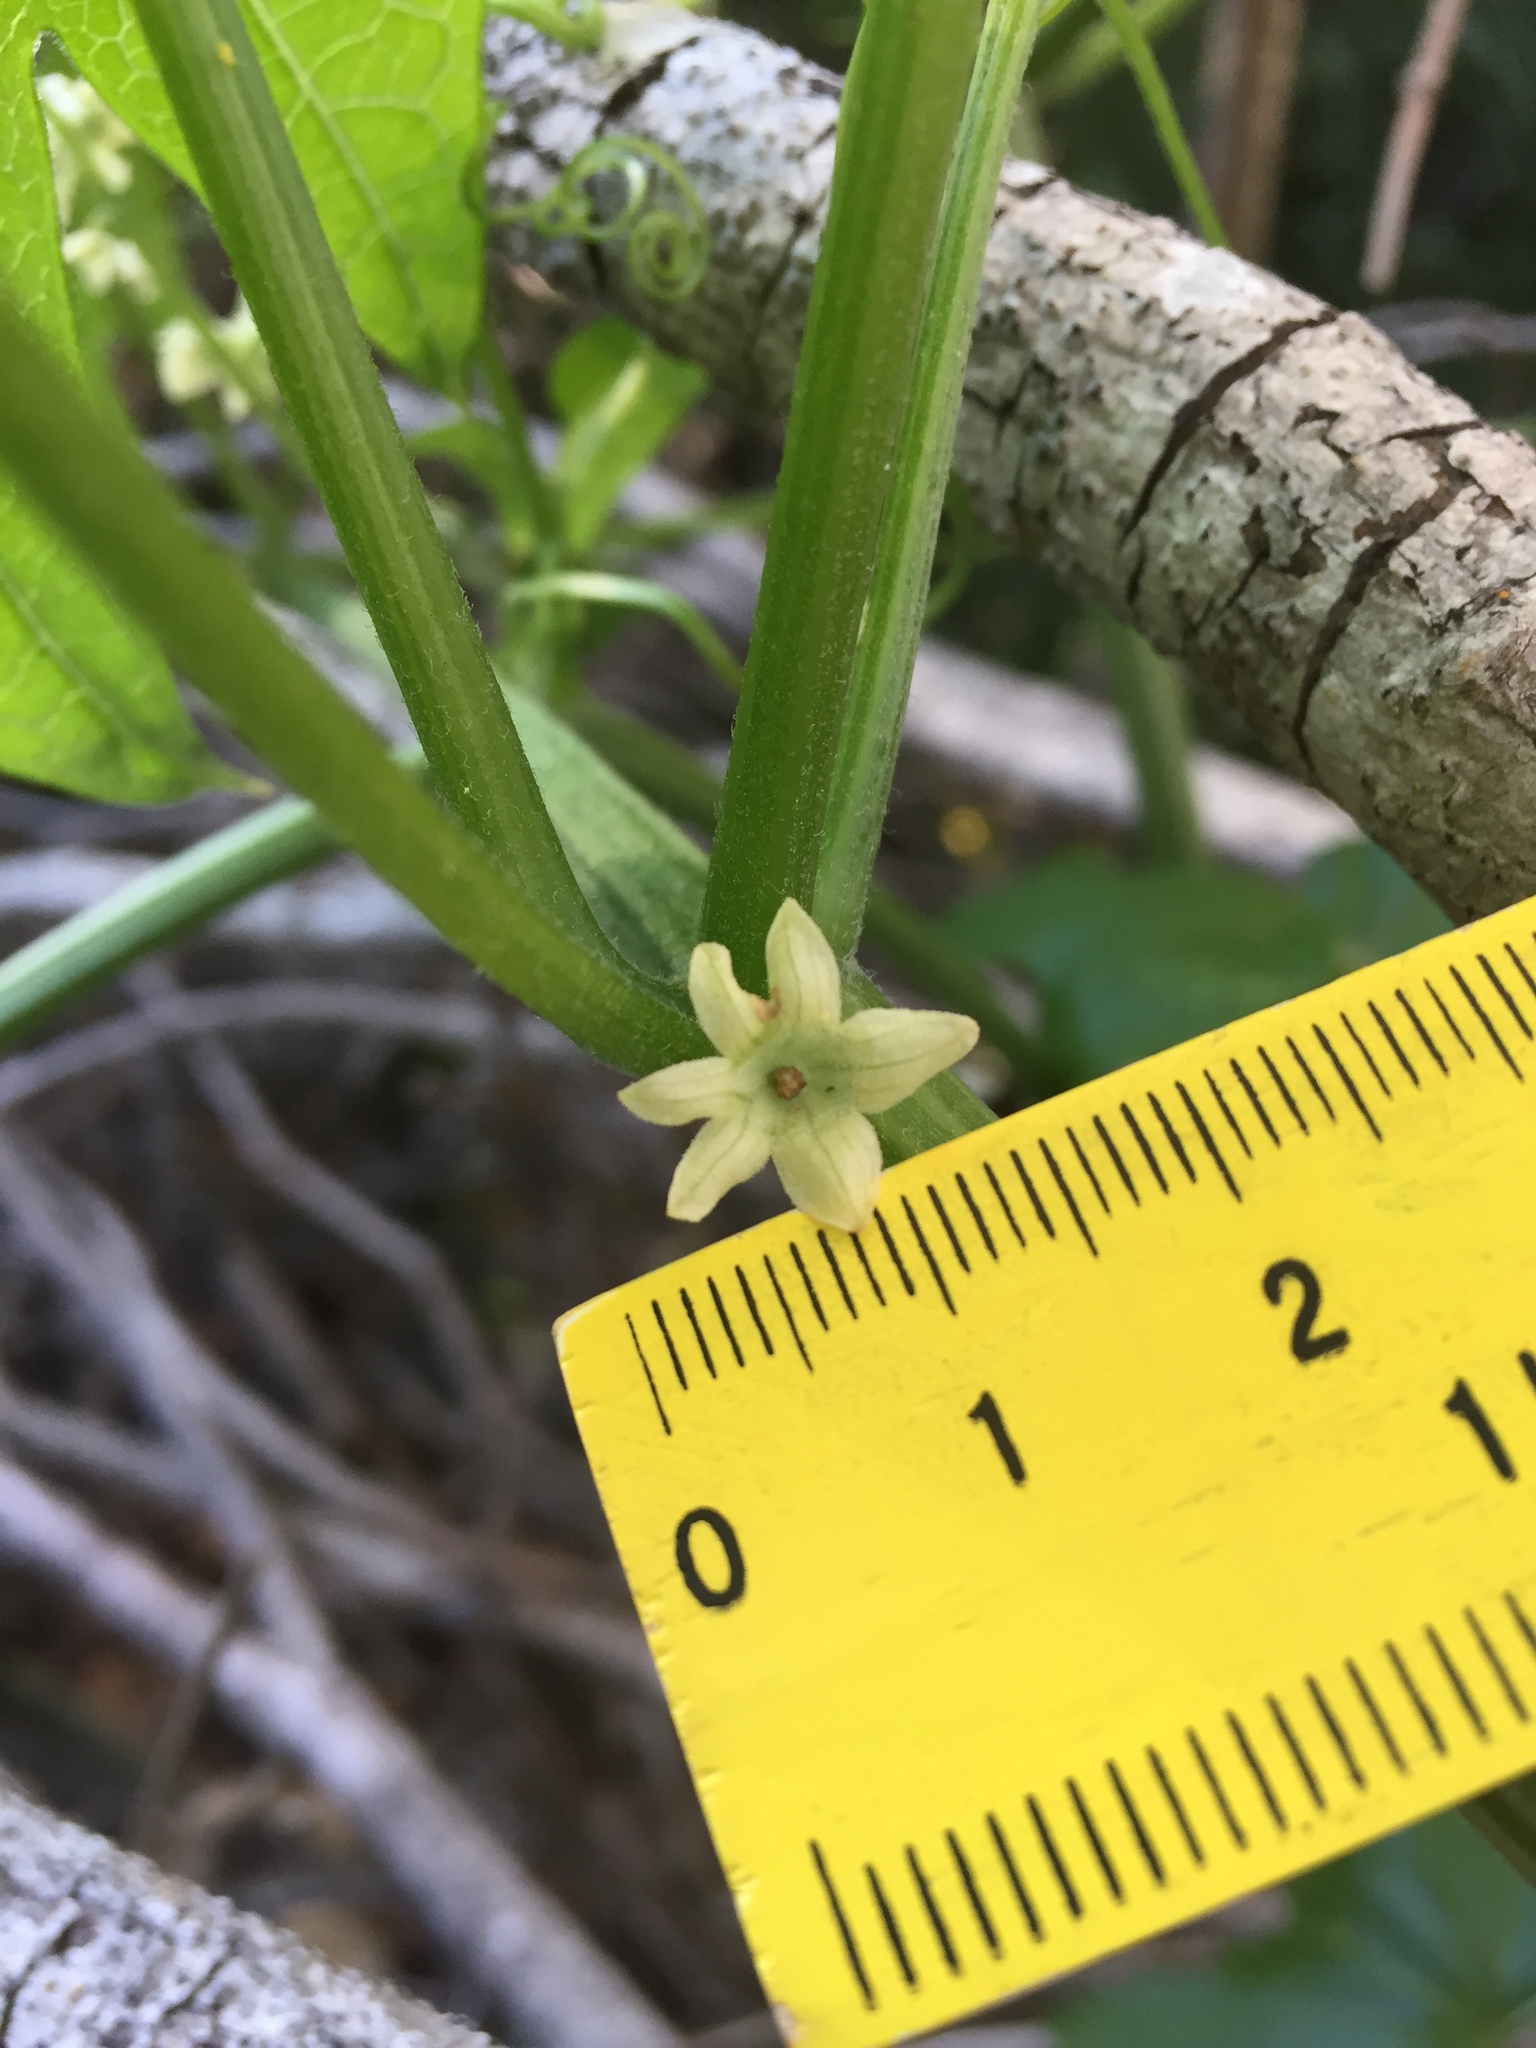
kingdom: Plantae
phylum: Tracheophyta
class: Magnoliopsida
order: Cucurbitales
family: Cucurbitaceae
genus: Marah
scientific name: Marah fabacea
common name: California manroot
